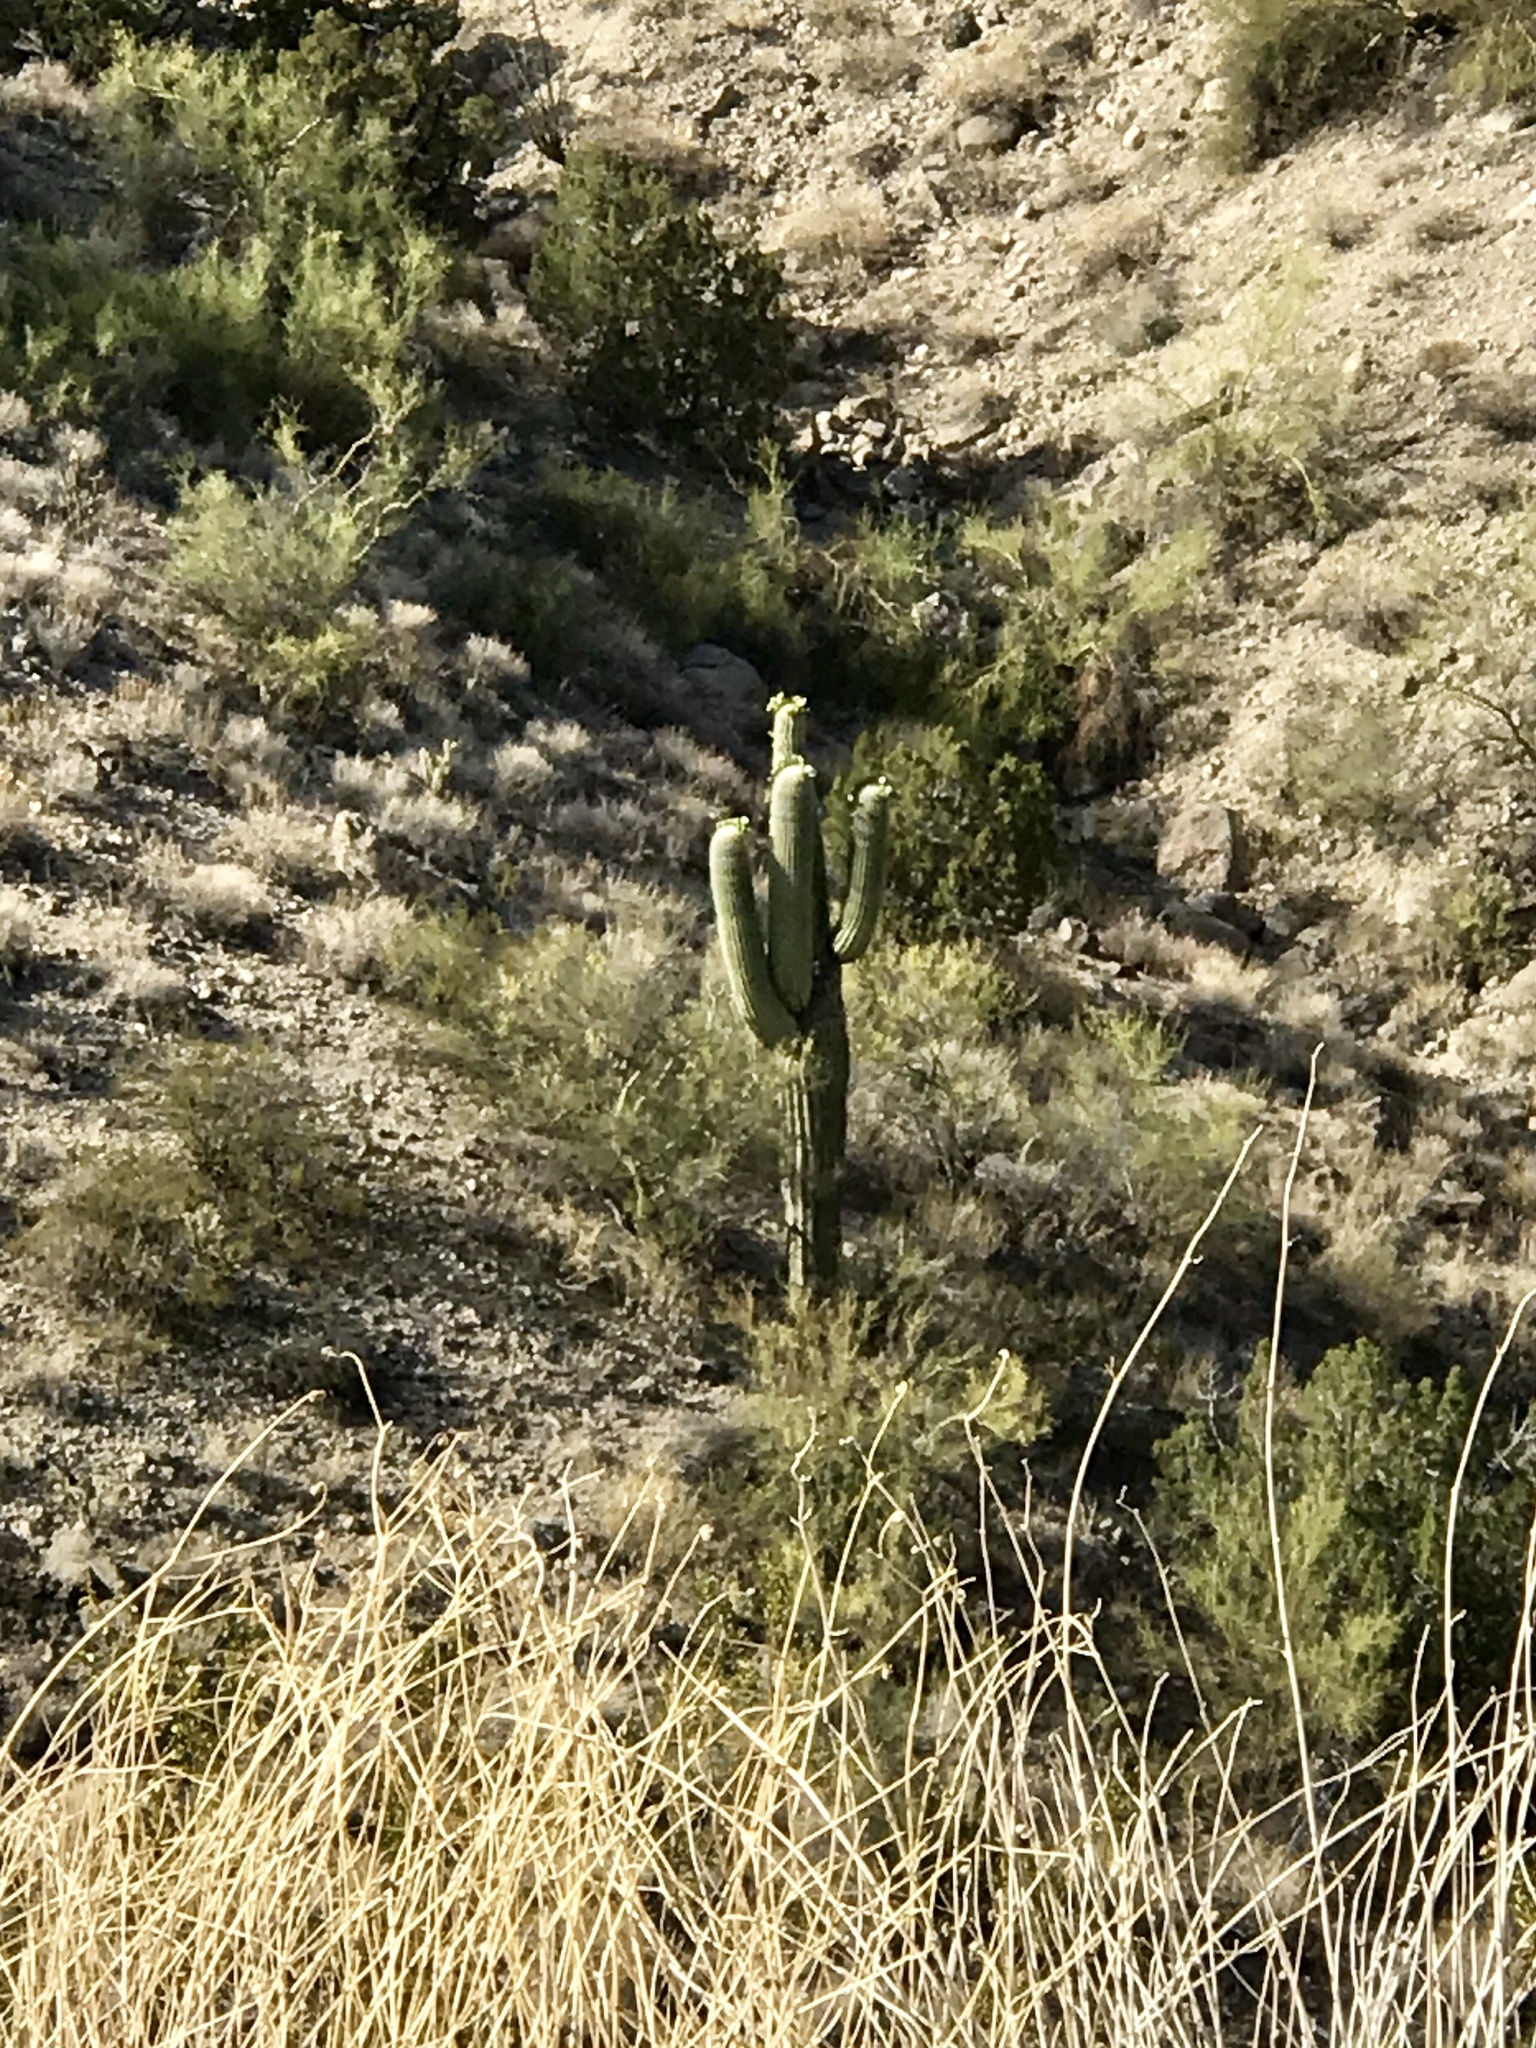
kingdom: Plantae
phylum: Tracheophyta
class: Magnoliopsida
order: Caryophyllales
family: Cactaceae
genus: Carnegiea
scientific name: Carnegiea gigantea
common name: Saguaro
